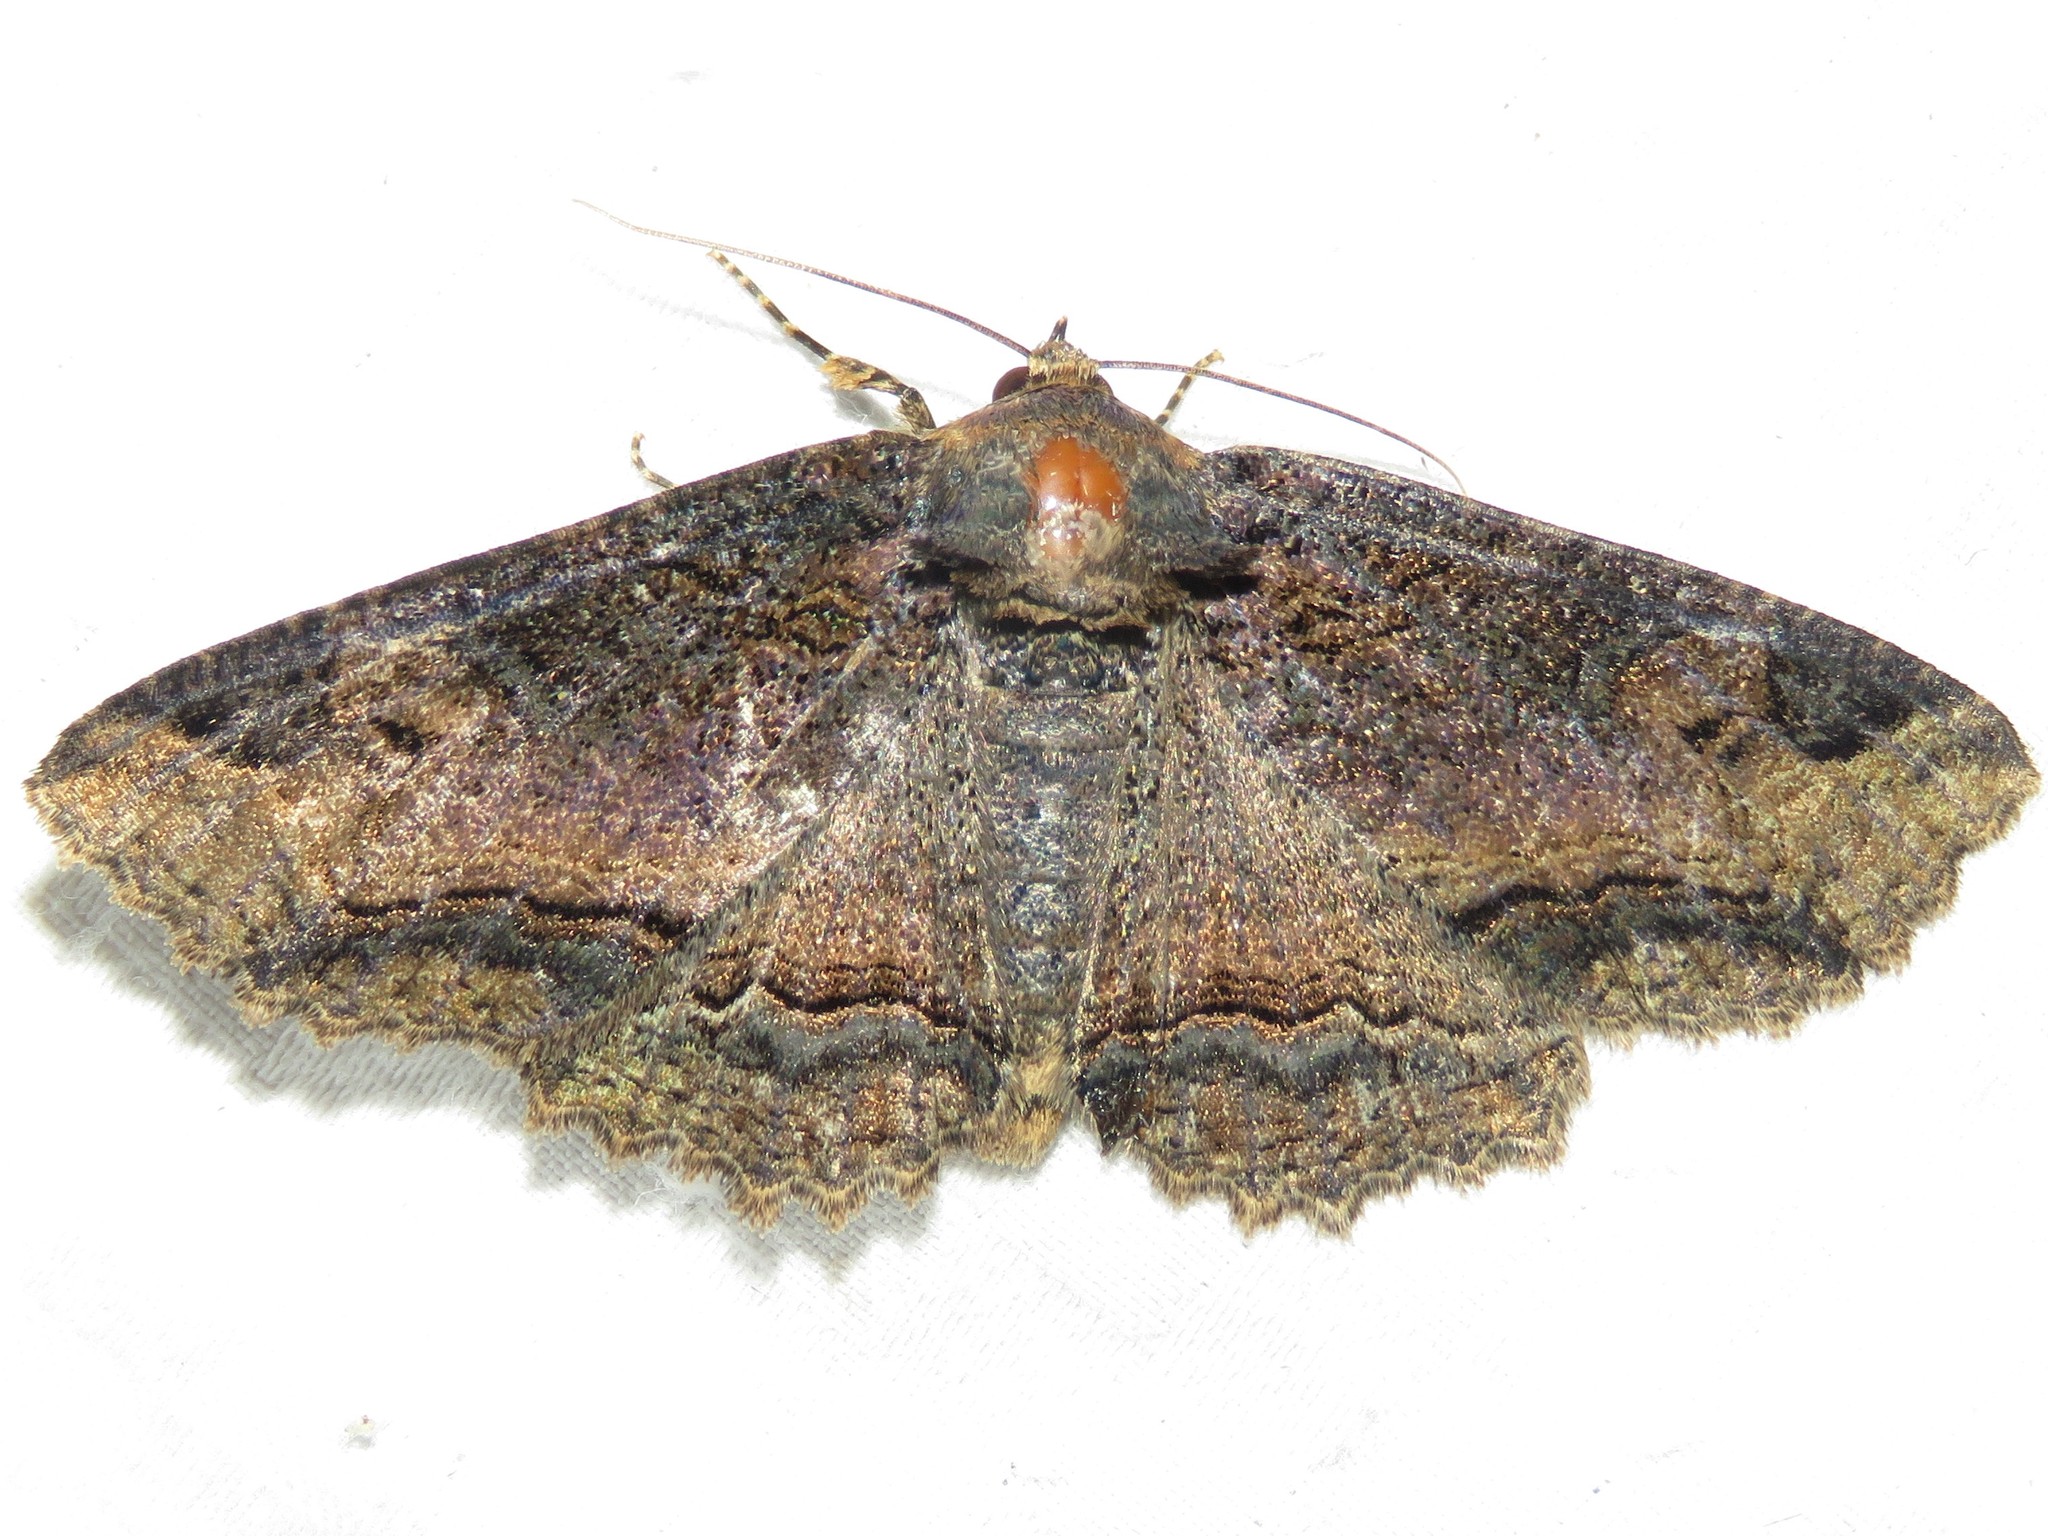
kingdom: Animalia
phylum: Arthropoda
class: Insecta
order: Lepidoptera
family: Erebidae
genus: Zale
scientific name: Zale minerea
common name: Colorful zale moth
